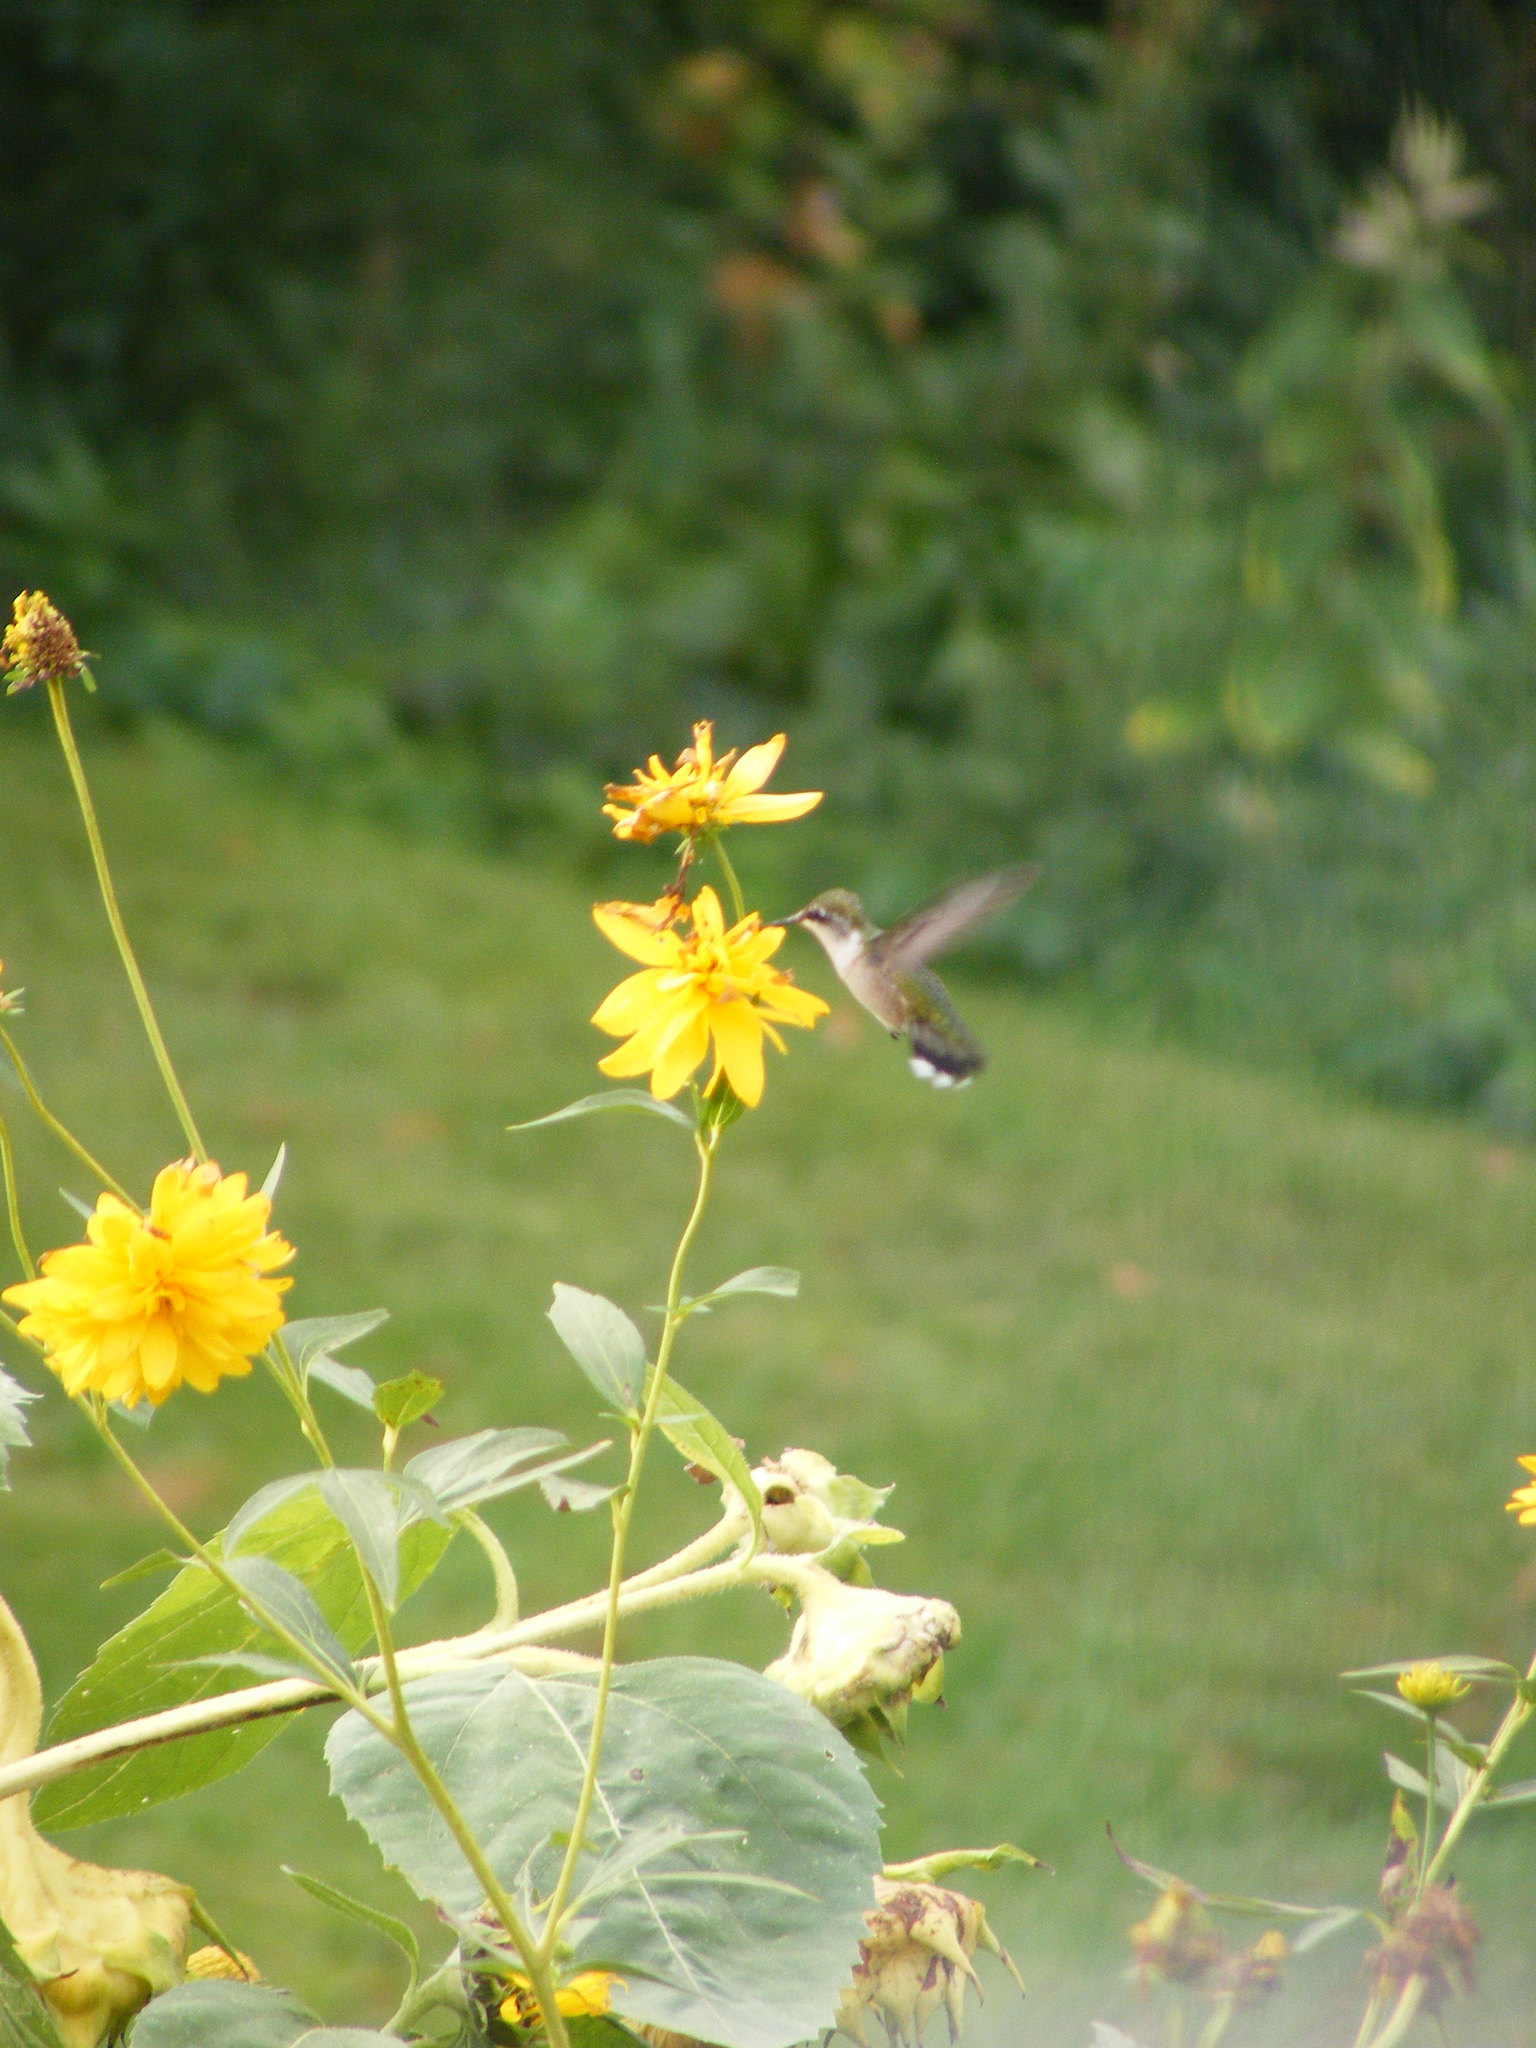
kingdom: Animalia
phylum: Chordata
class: Aves
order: Apodiformes
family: Trochilidae
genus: Archilochus
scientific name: Archilochus colubris
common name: Ruby-throated hummingbird
